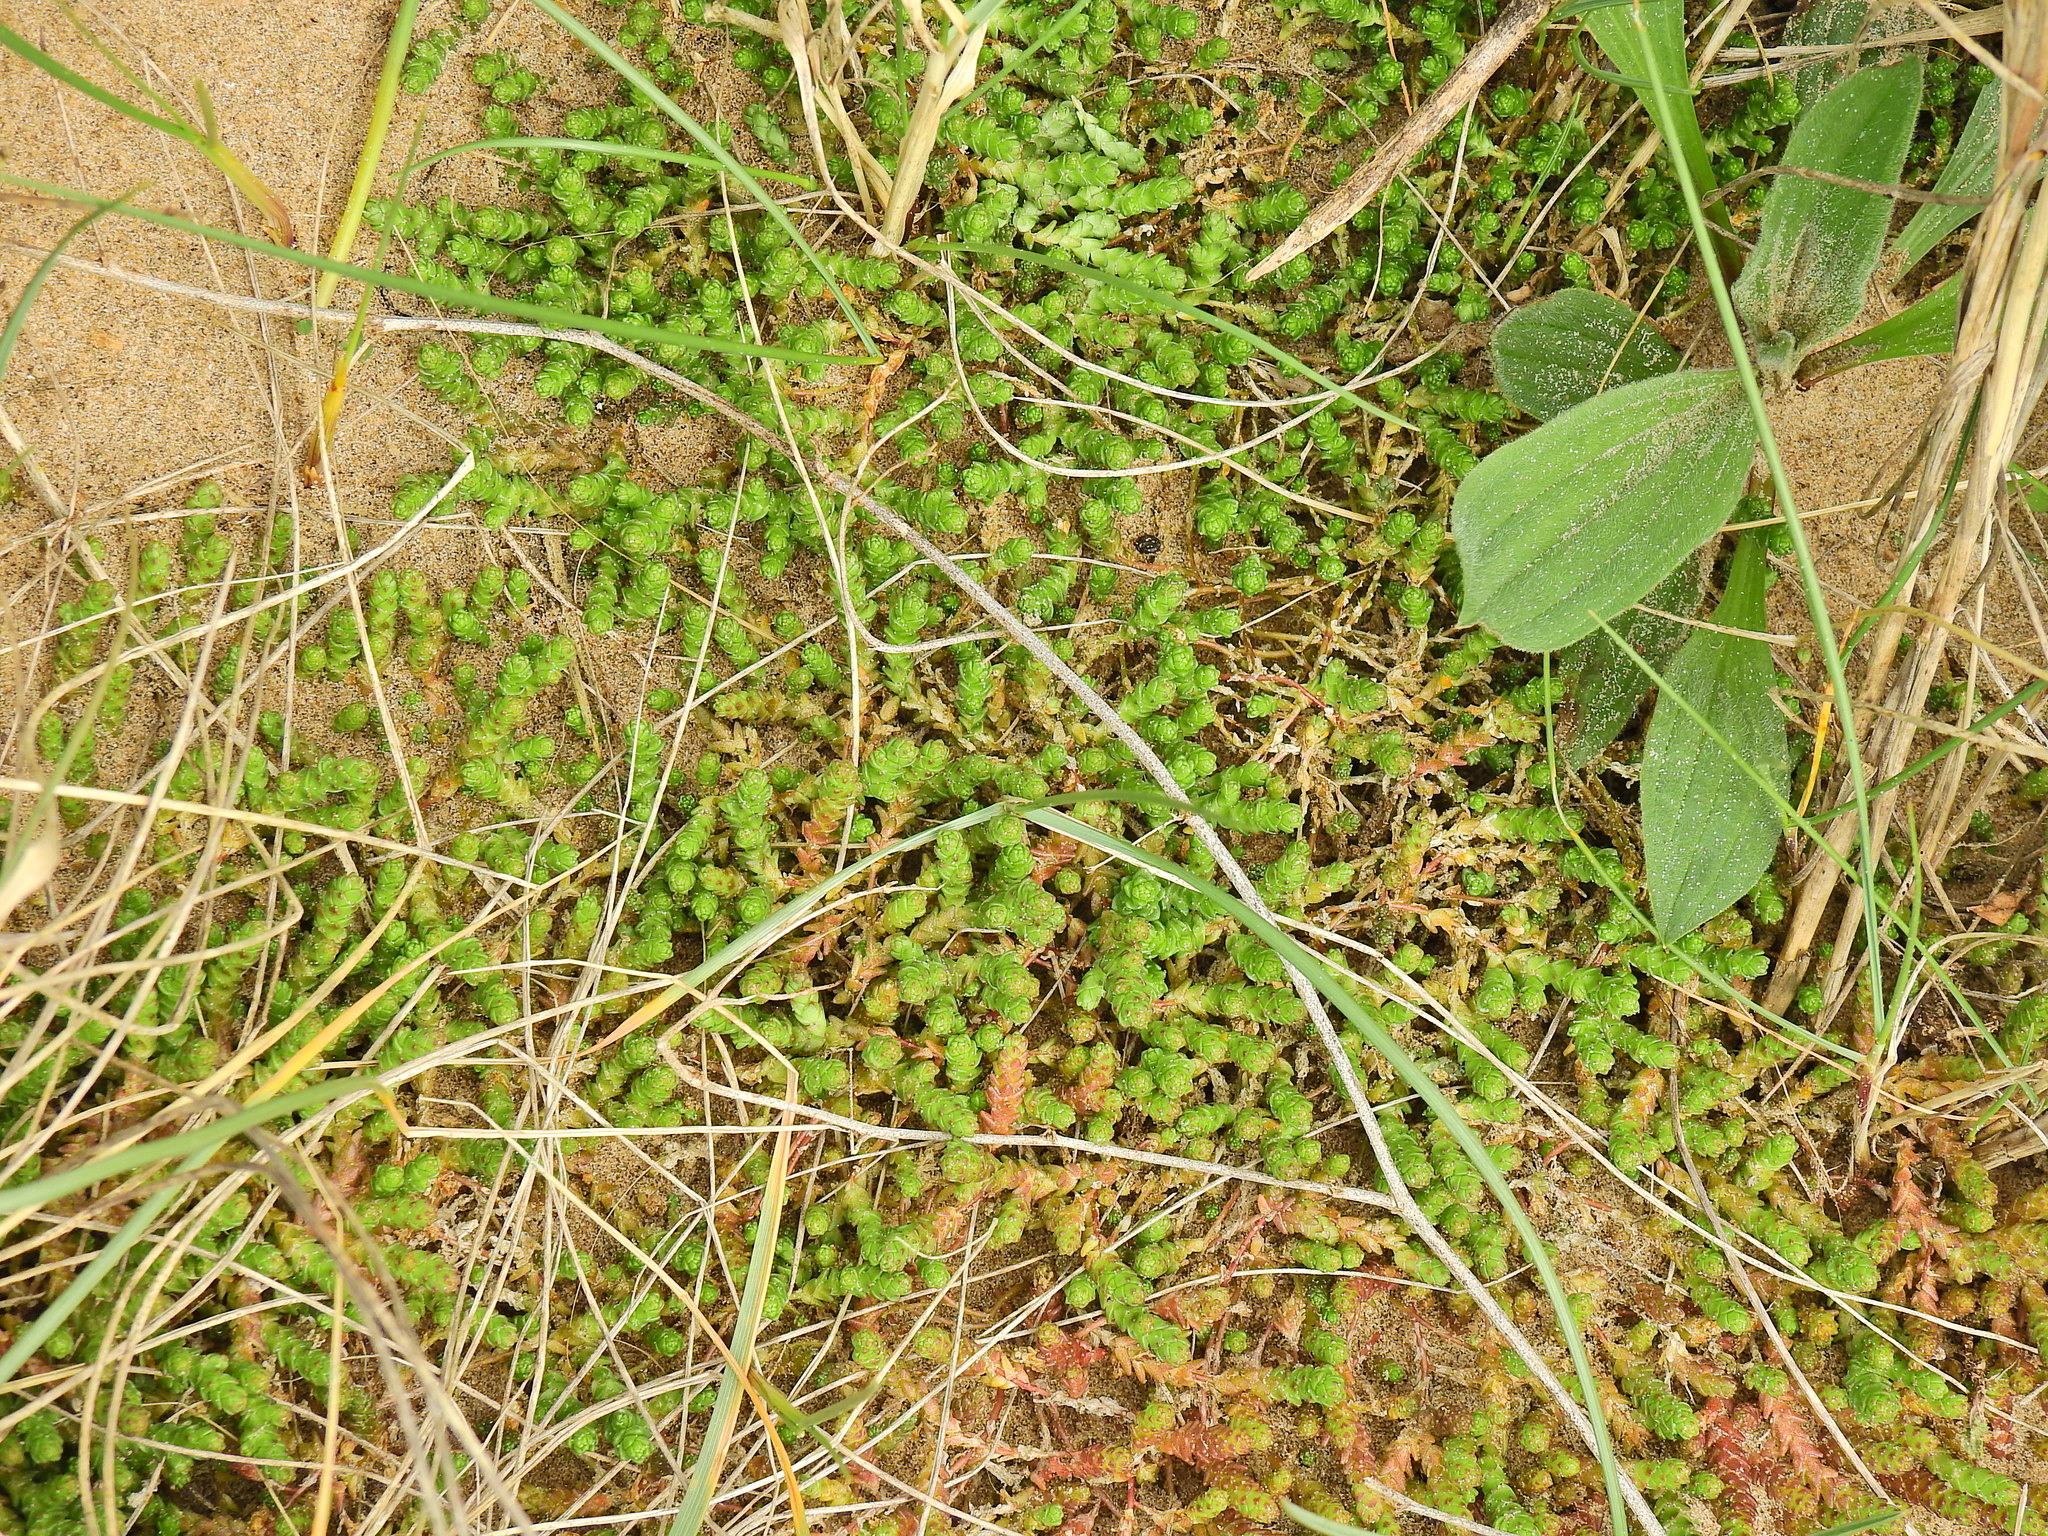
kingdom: Plantae
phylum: Tracheophyta
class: Magnoliopsida
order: Saxifragales
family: Crassulaceae
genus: Sedum
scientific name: Sedum acre
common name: Biting stonecrop
